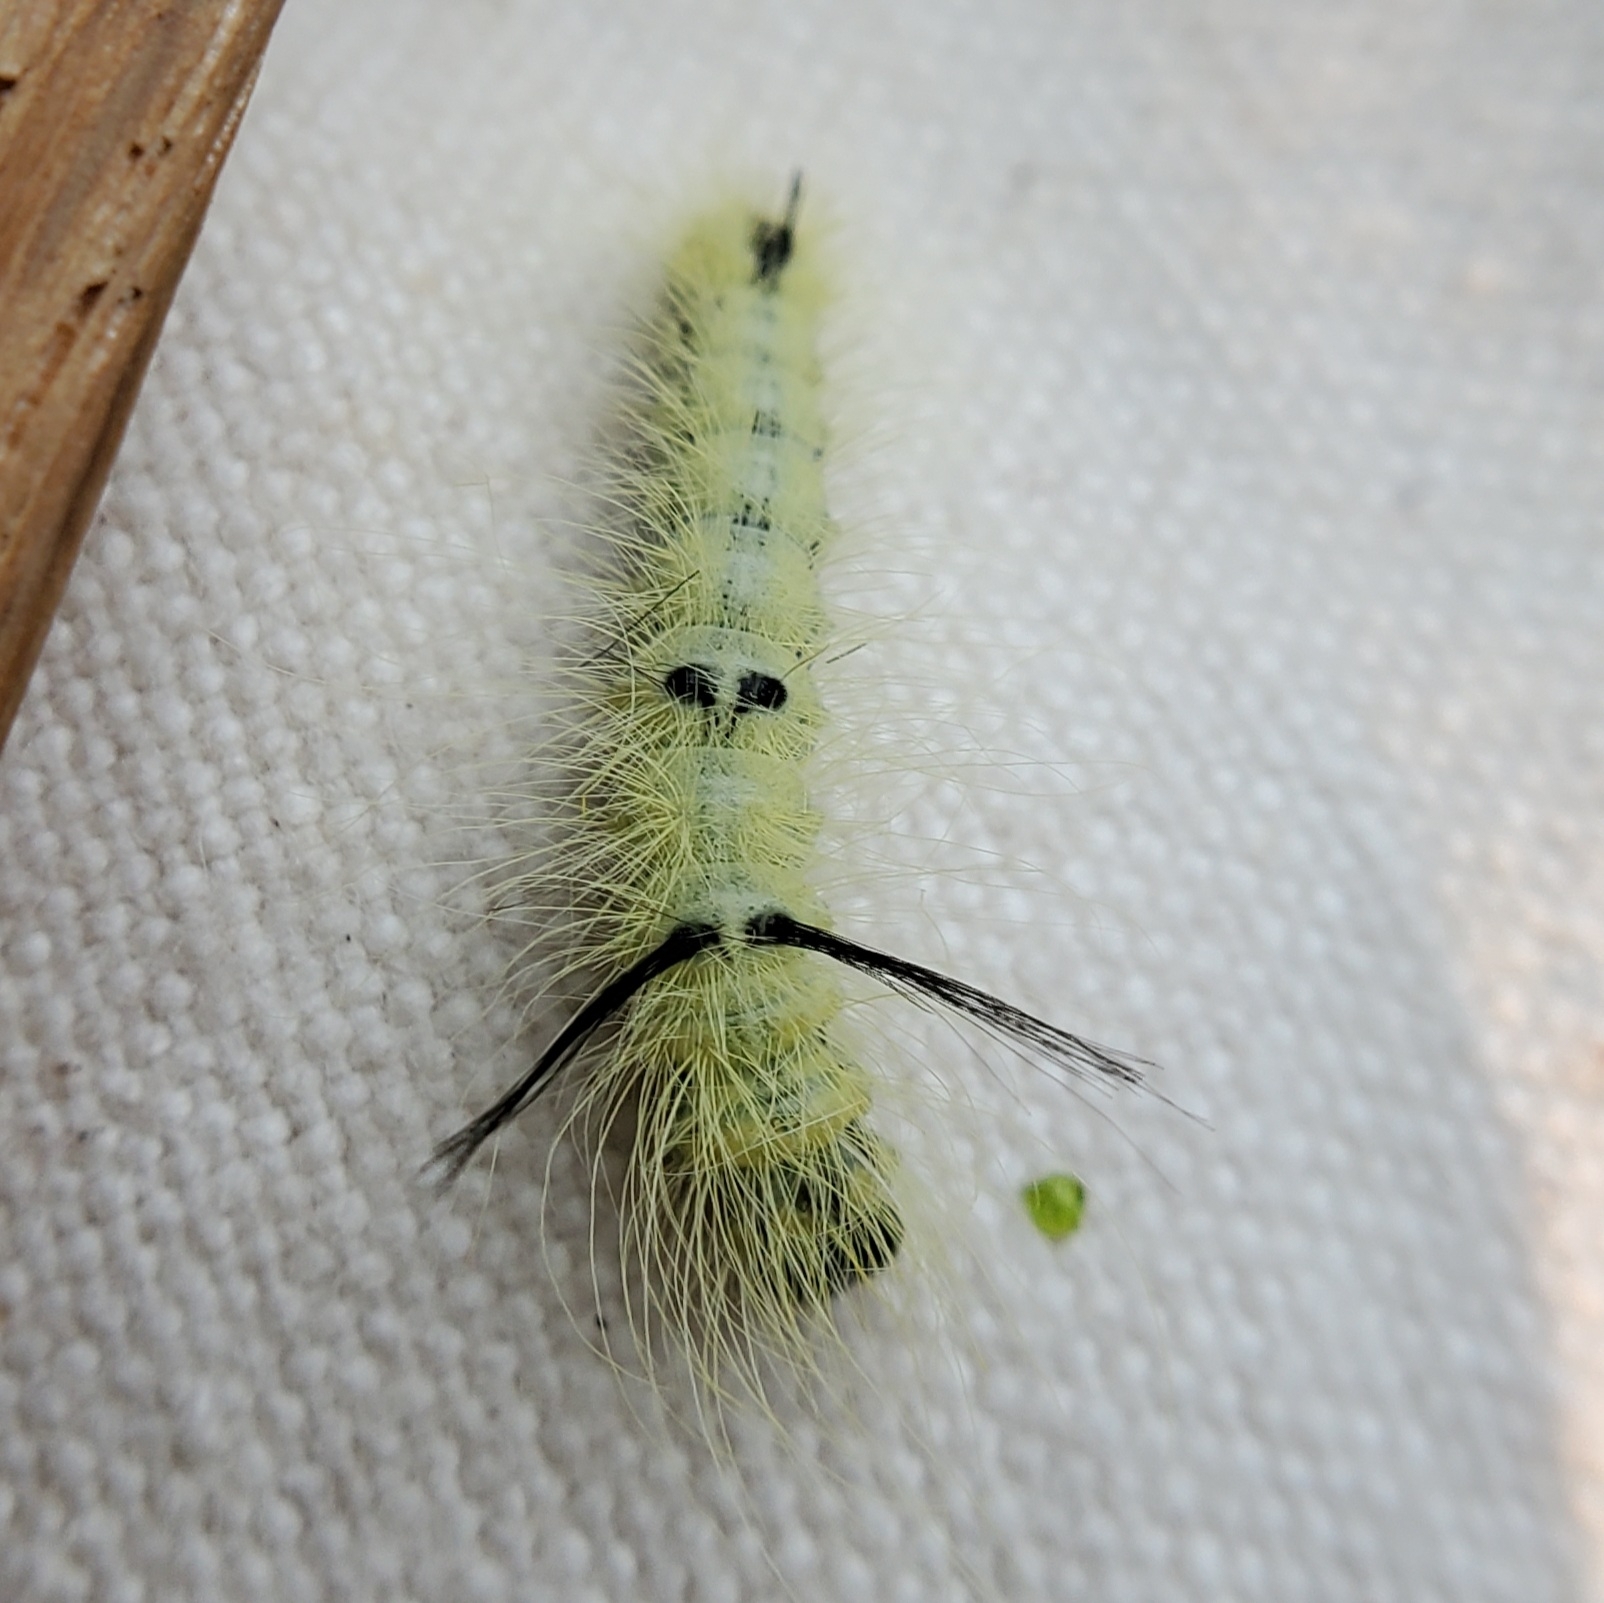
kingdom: Animalia
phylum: Arthropoda
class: Insecta
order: Lepidoptera
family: Noctuidae
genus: Acronicta
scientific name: Acronicta americana
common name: American dagger
